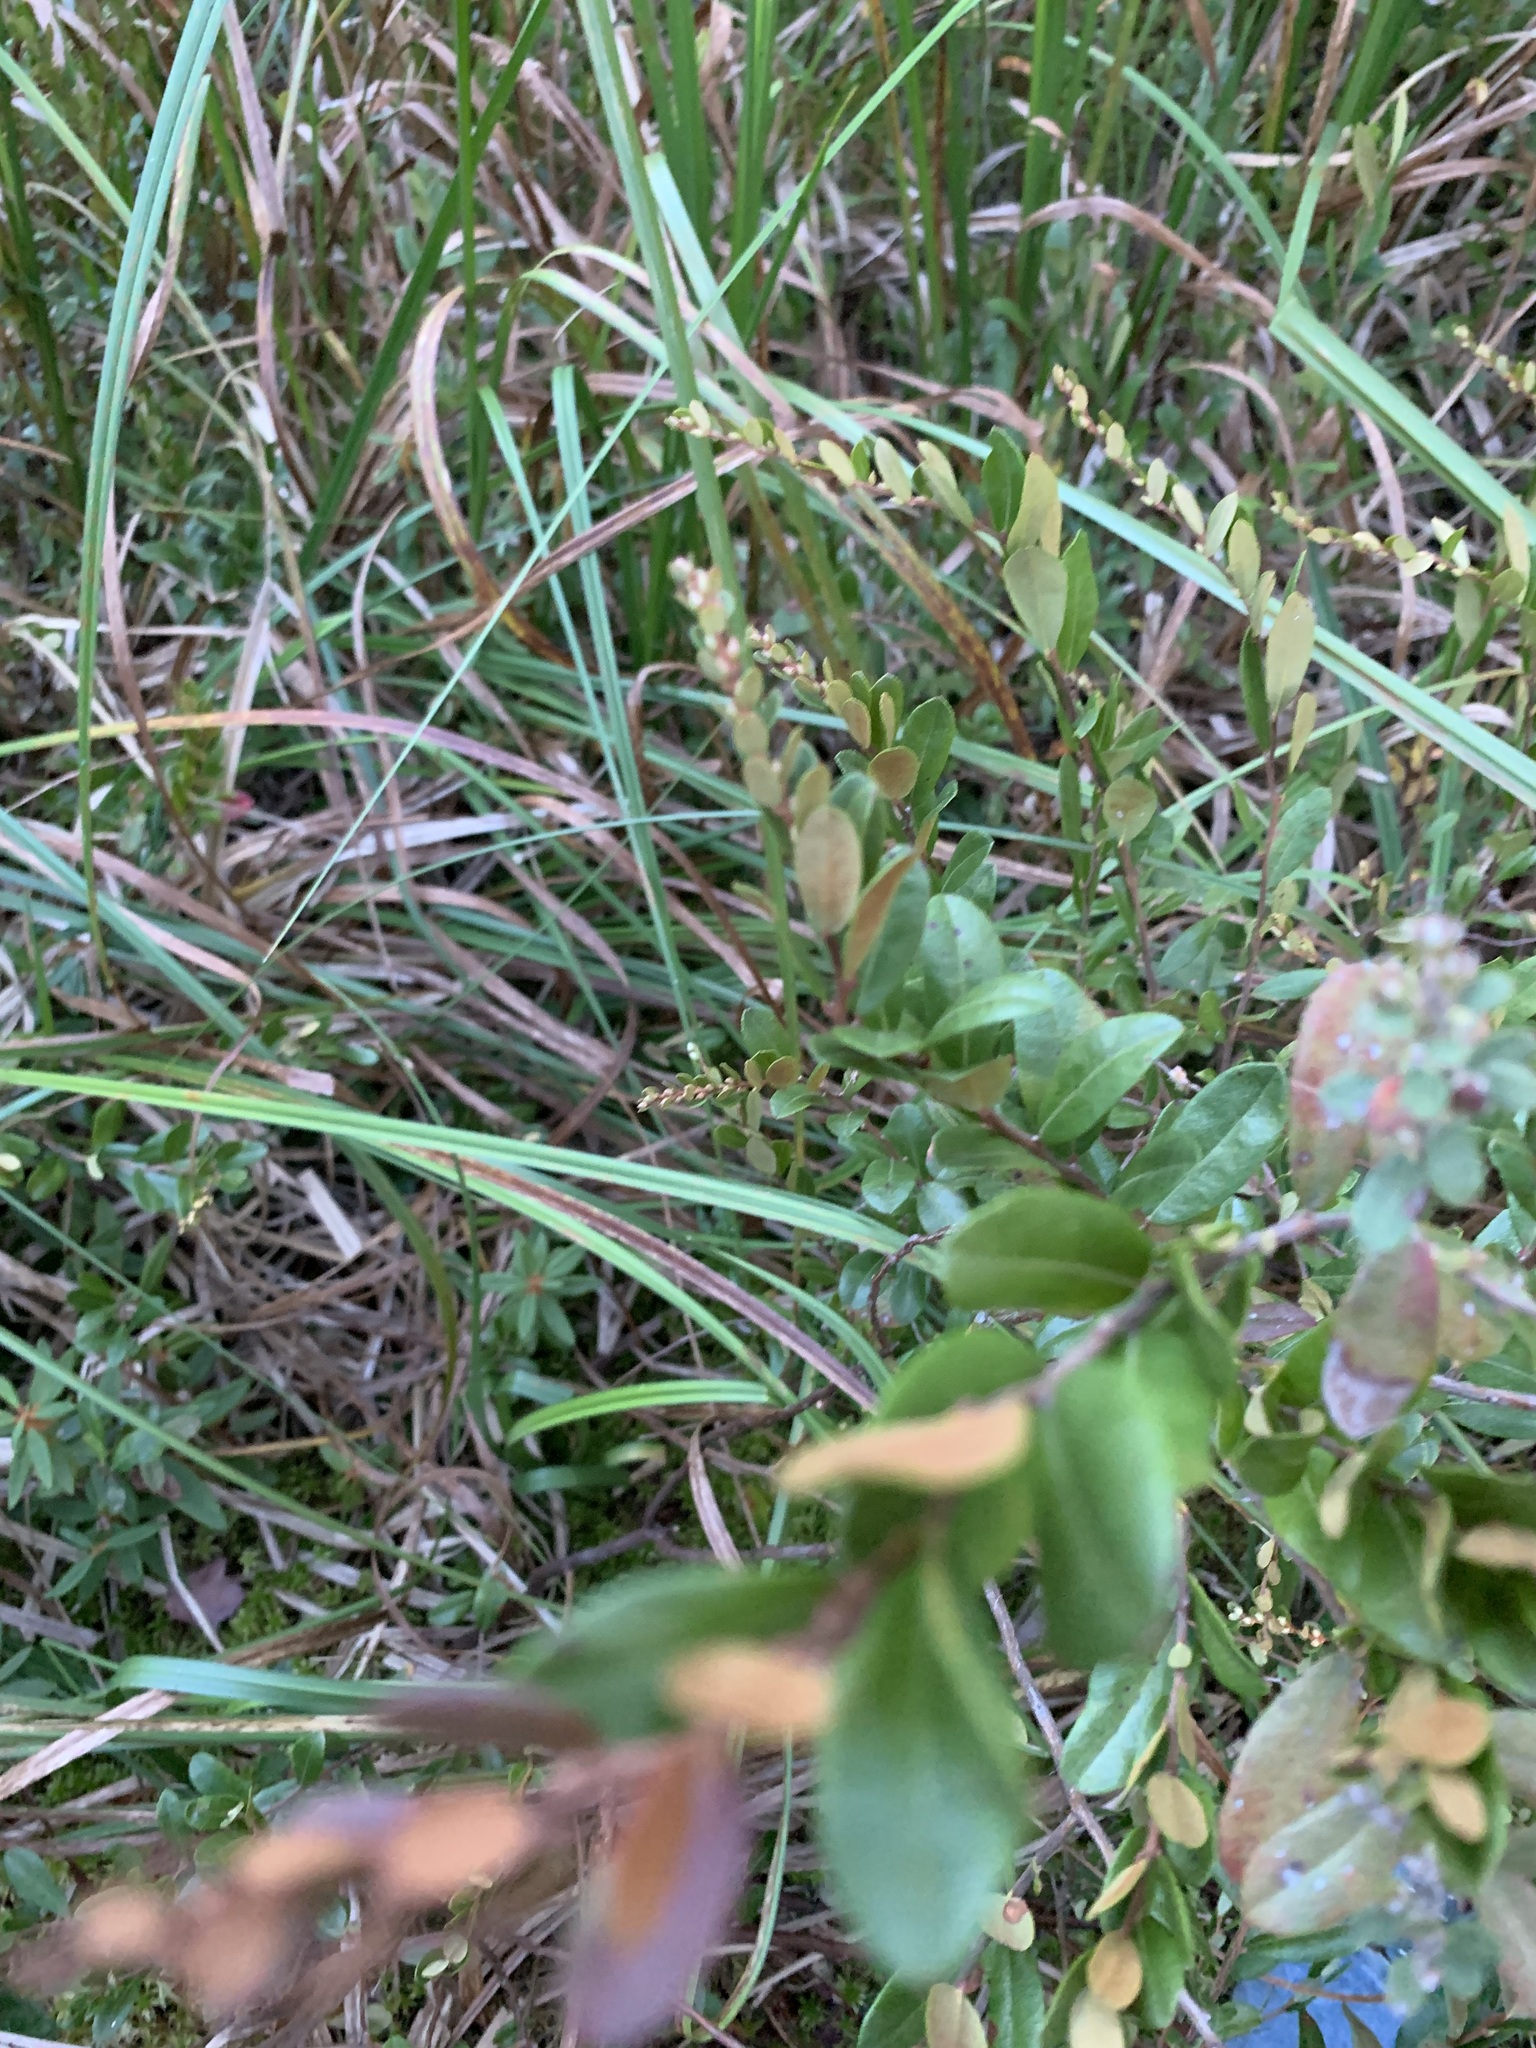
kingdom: Plantae
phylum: Tracheophyta
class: Magnoliopsida
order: Ericales
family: Ericaceae
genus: Chamaedaphne
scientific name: Chamaedaphne calyculata
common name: Leatherleaf
